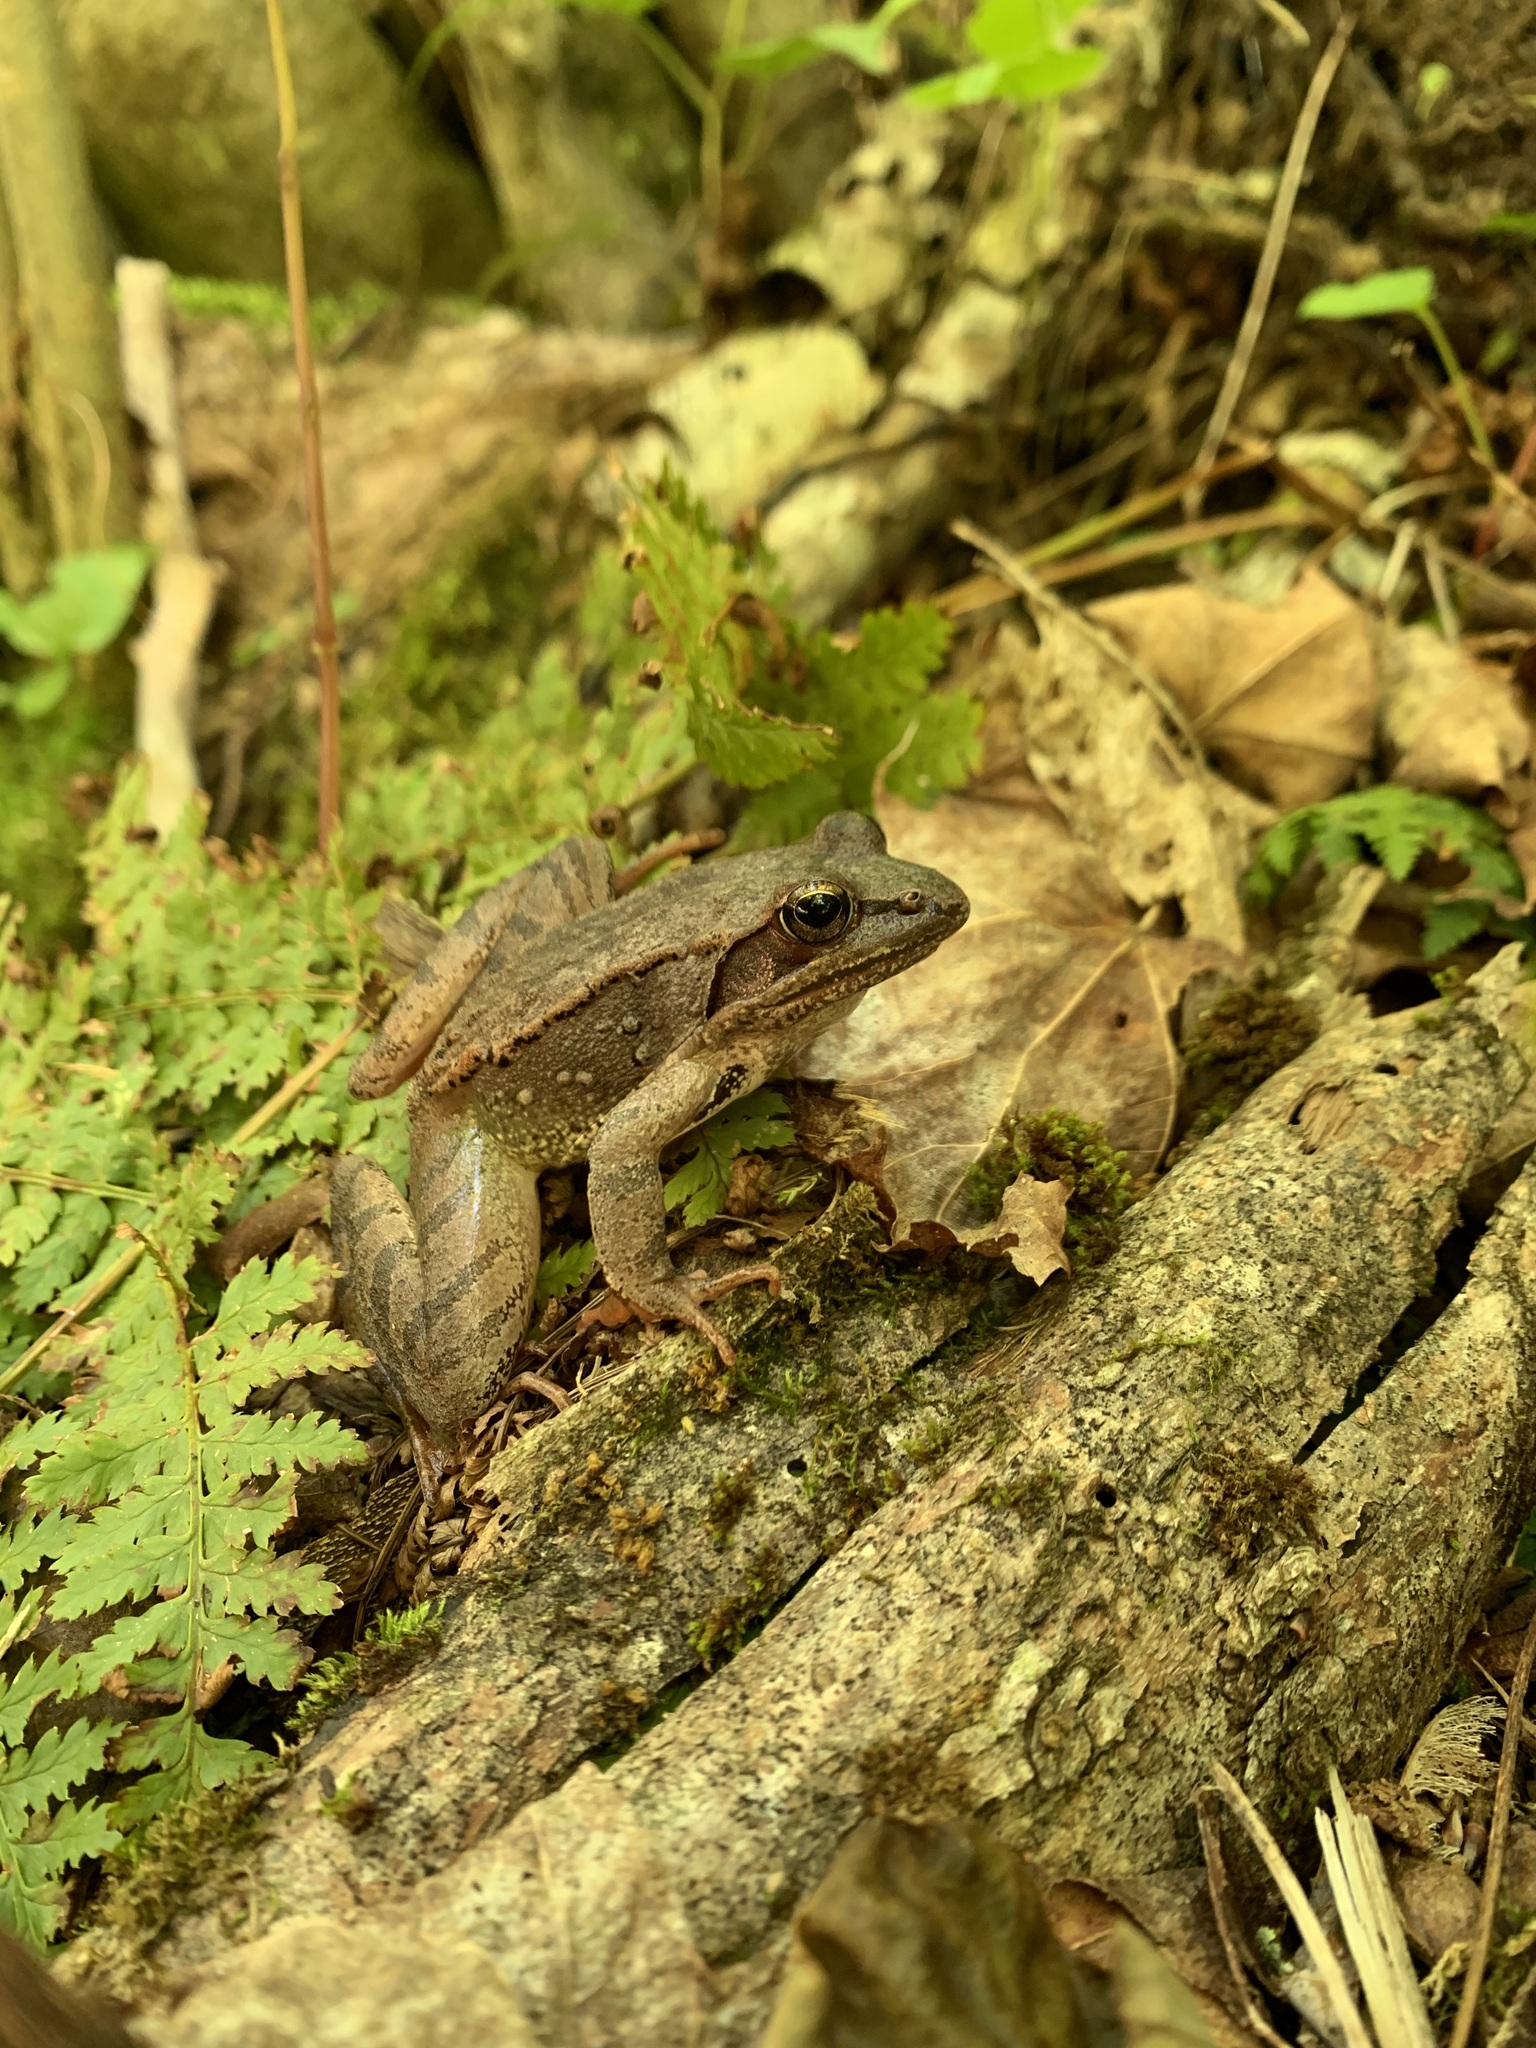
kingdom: Animalia
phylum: Chordata
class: Amphibia
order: Anura
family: Ranidae
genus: Lithobates
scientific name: Lithobates sylvaticus
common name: Wood frog
